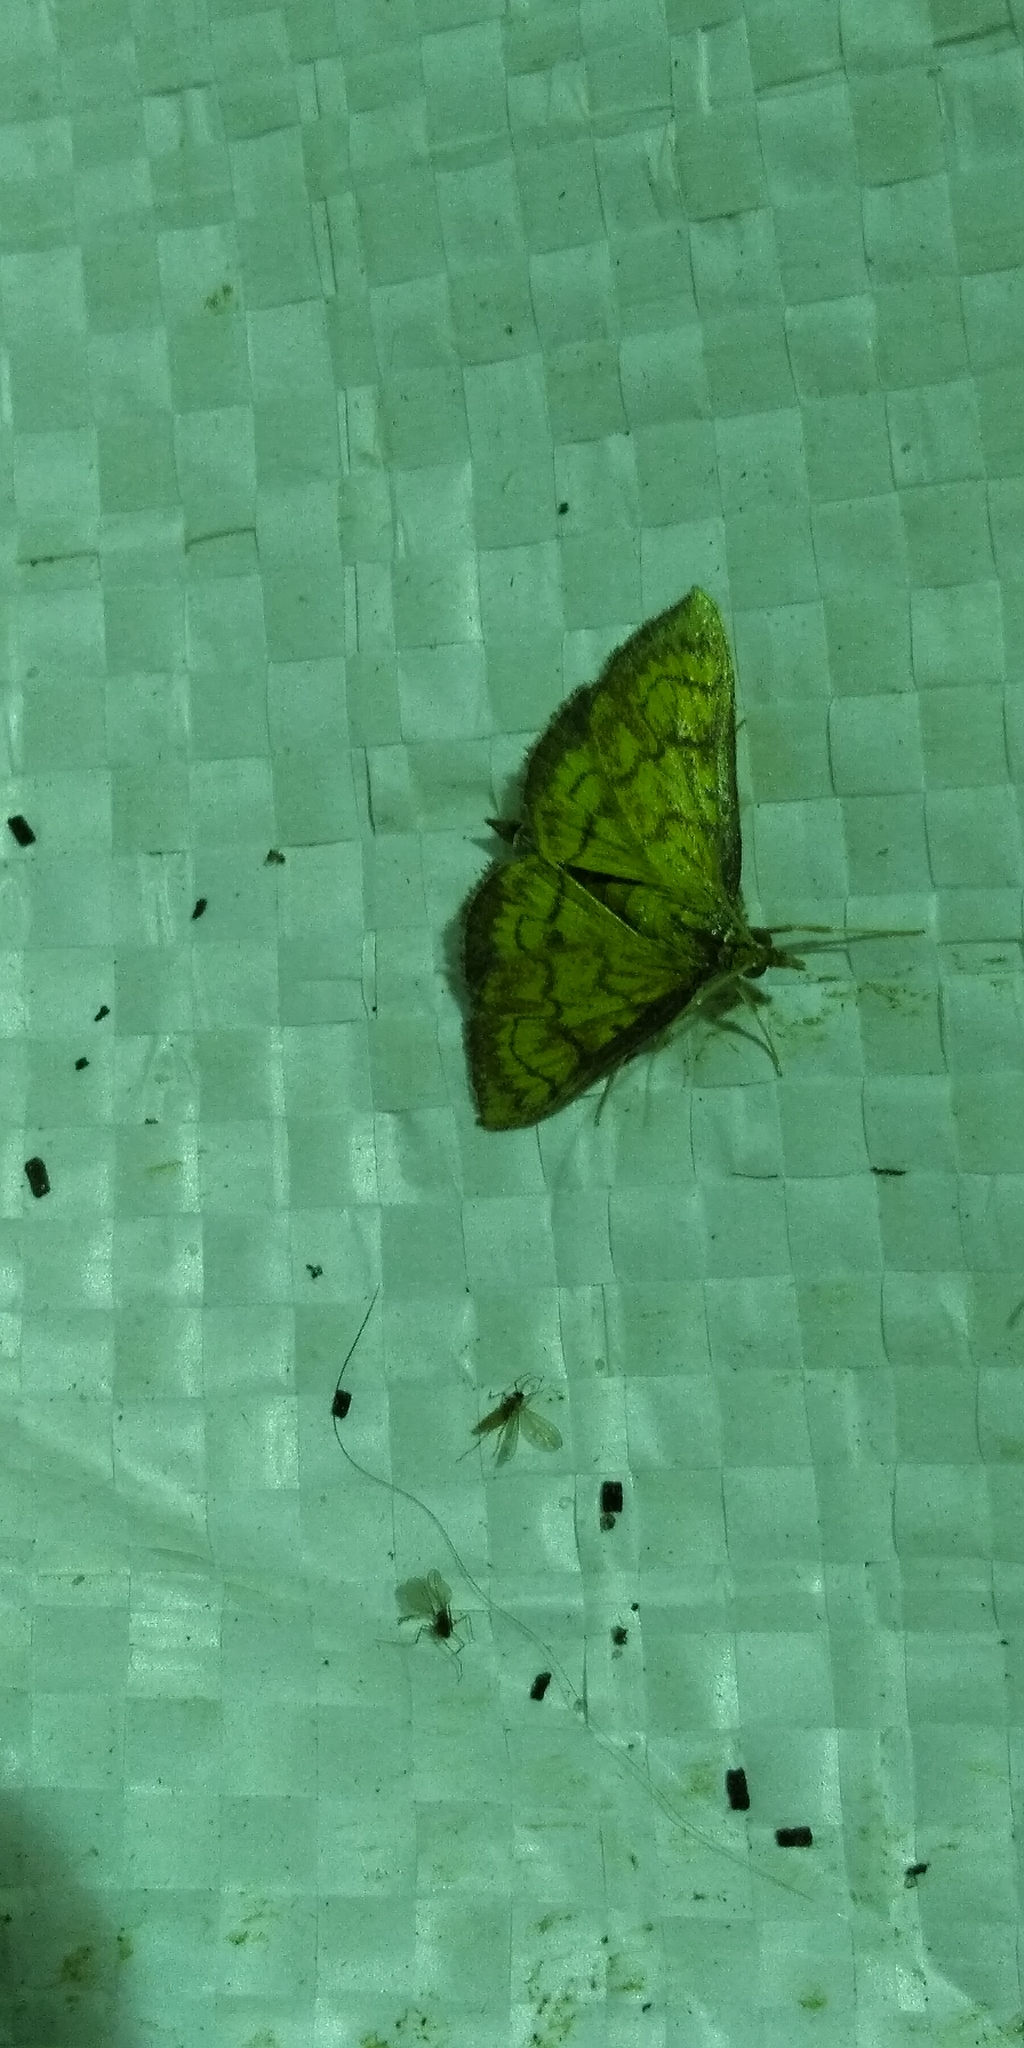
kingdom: Animalia
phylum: Arthropoda
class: Insecta
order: Lepidoptera
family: Crambidae
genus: Ecpyrrhorrhoe
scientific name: Ecpyrrhorrhoe rubiginalis
